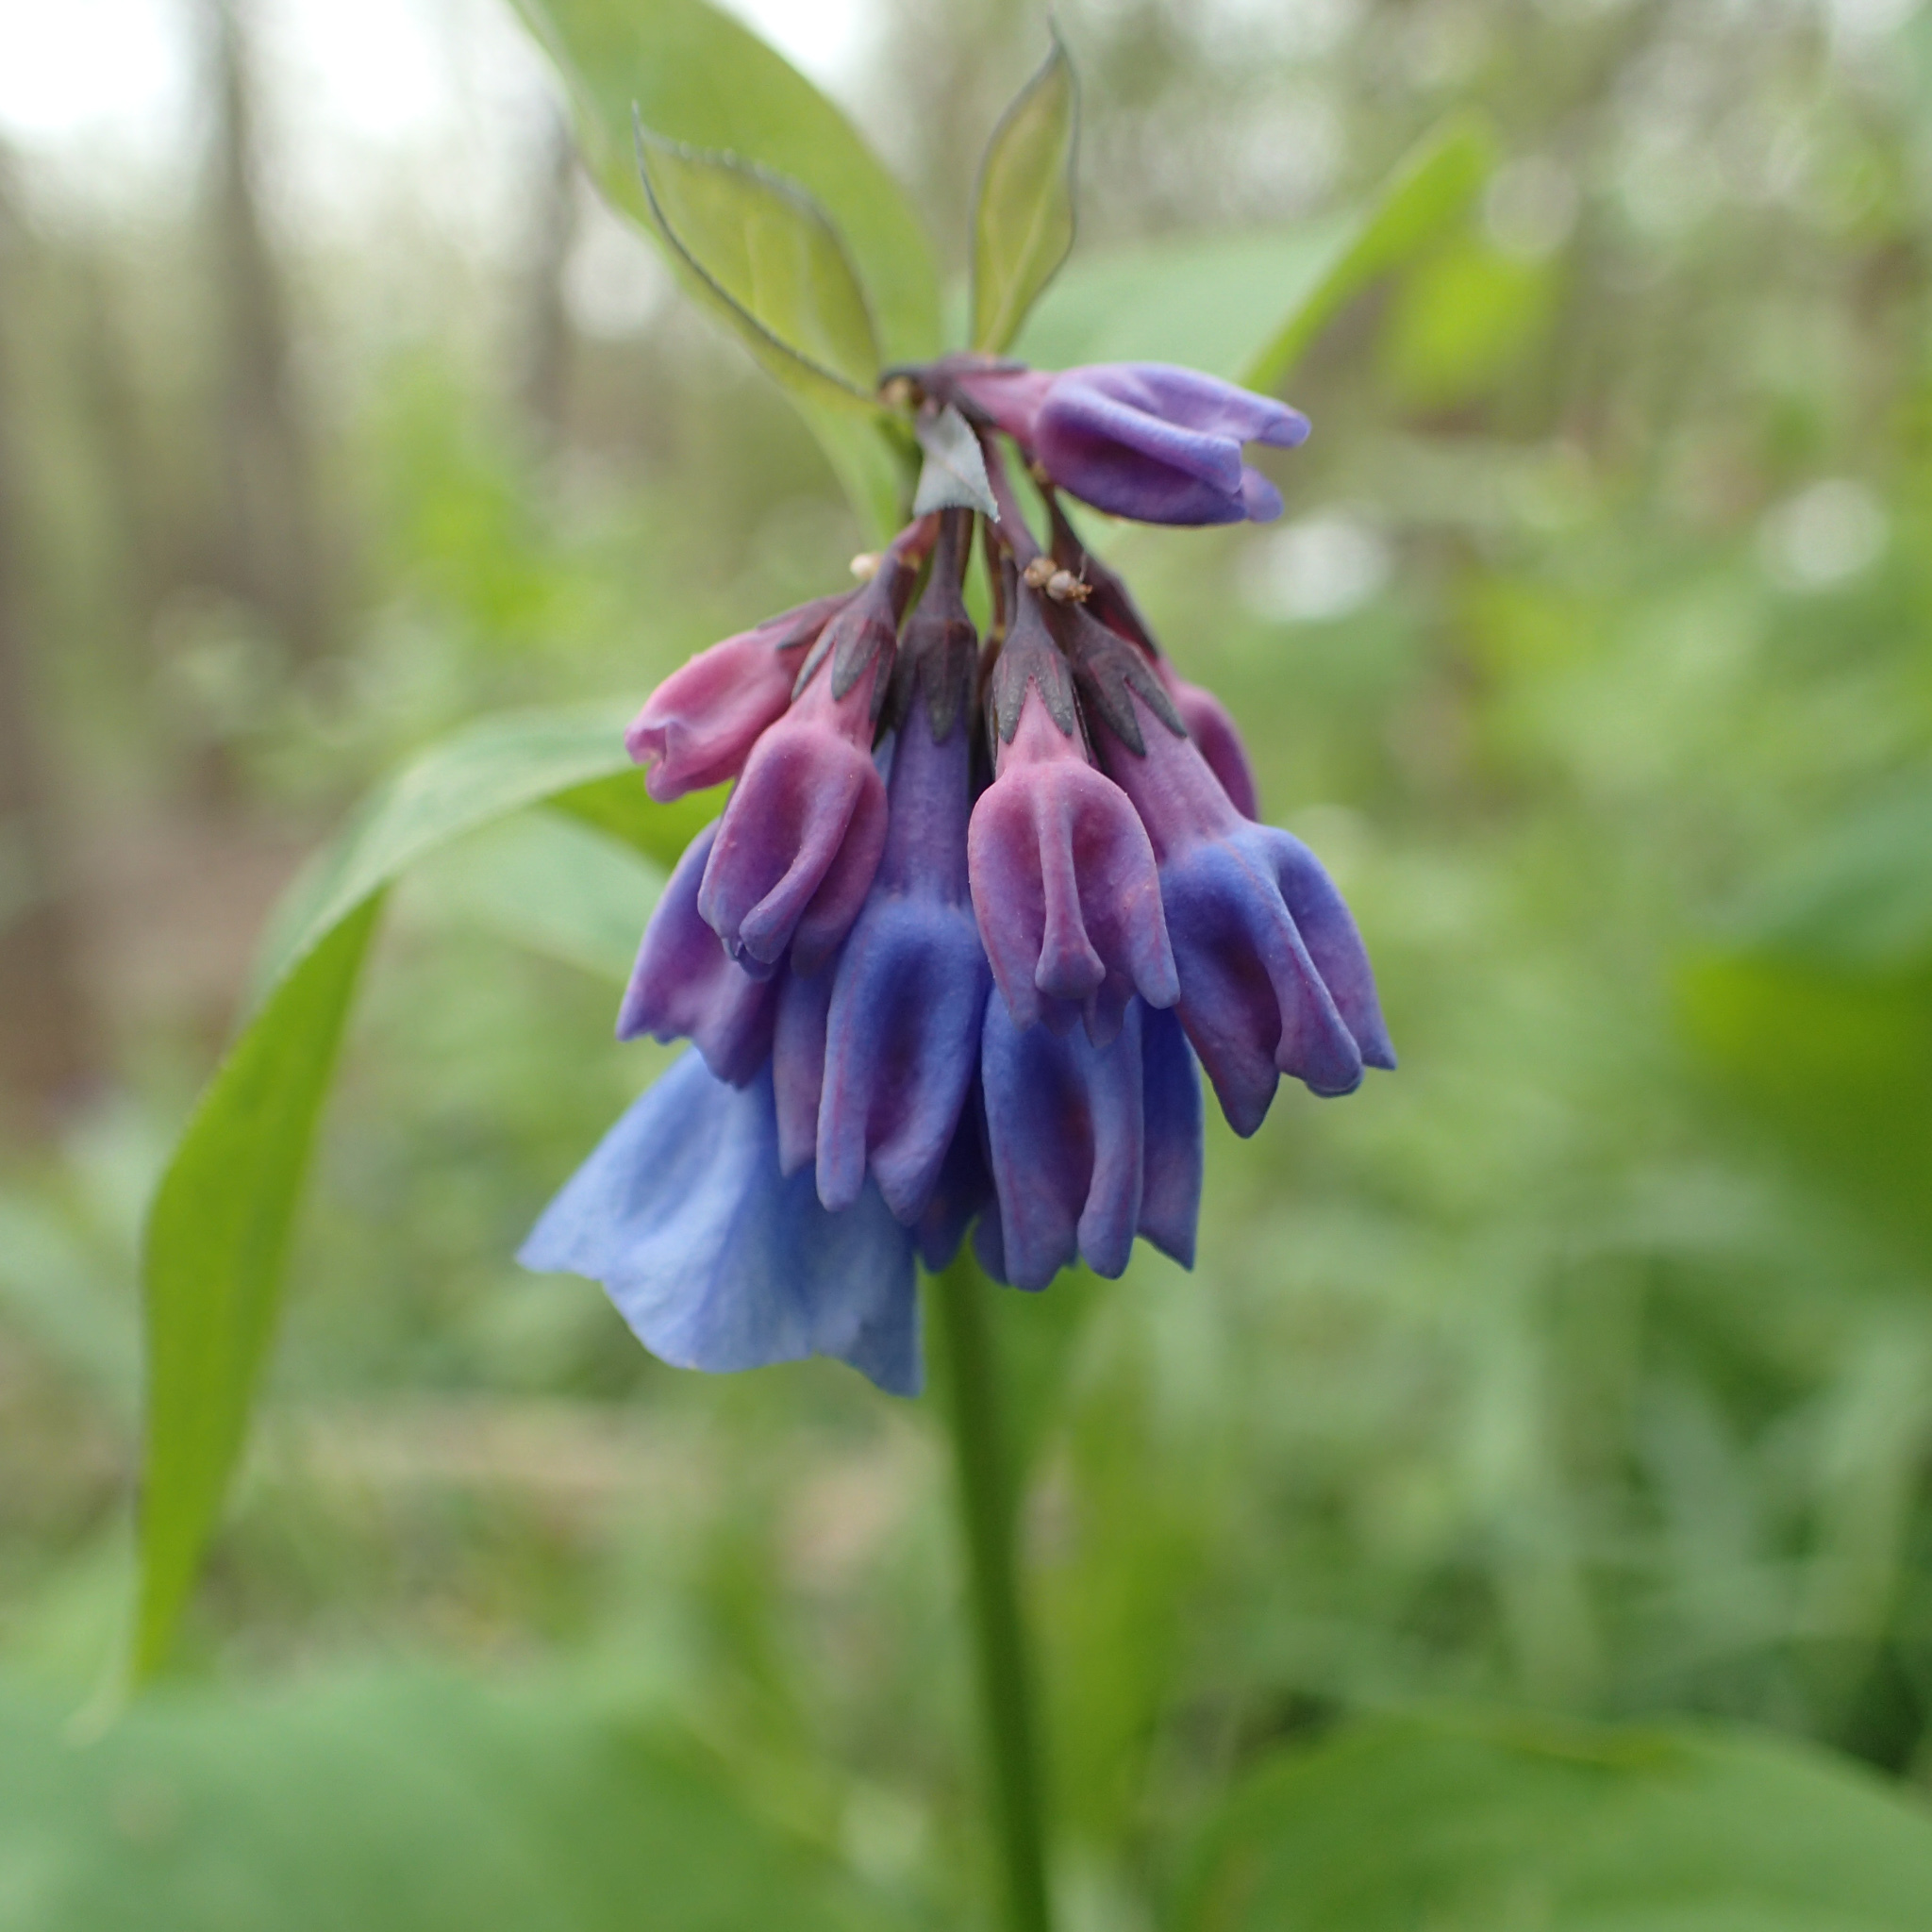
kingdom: Plantae
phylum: Tracheophyta
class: Magnoliopsida
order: Boraginales
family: Boraginaceae
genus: Mertensia
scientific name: Mertensia virginica
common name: Virginia bluebells
